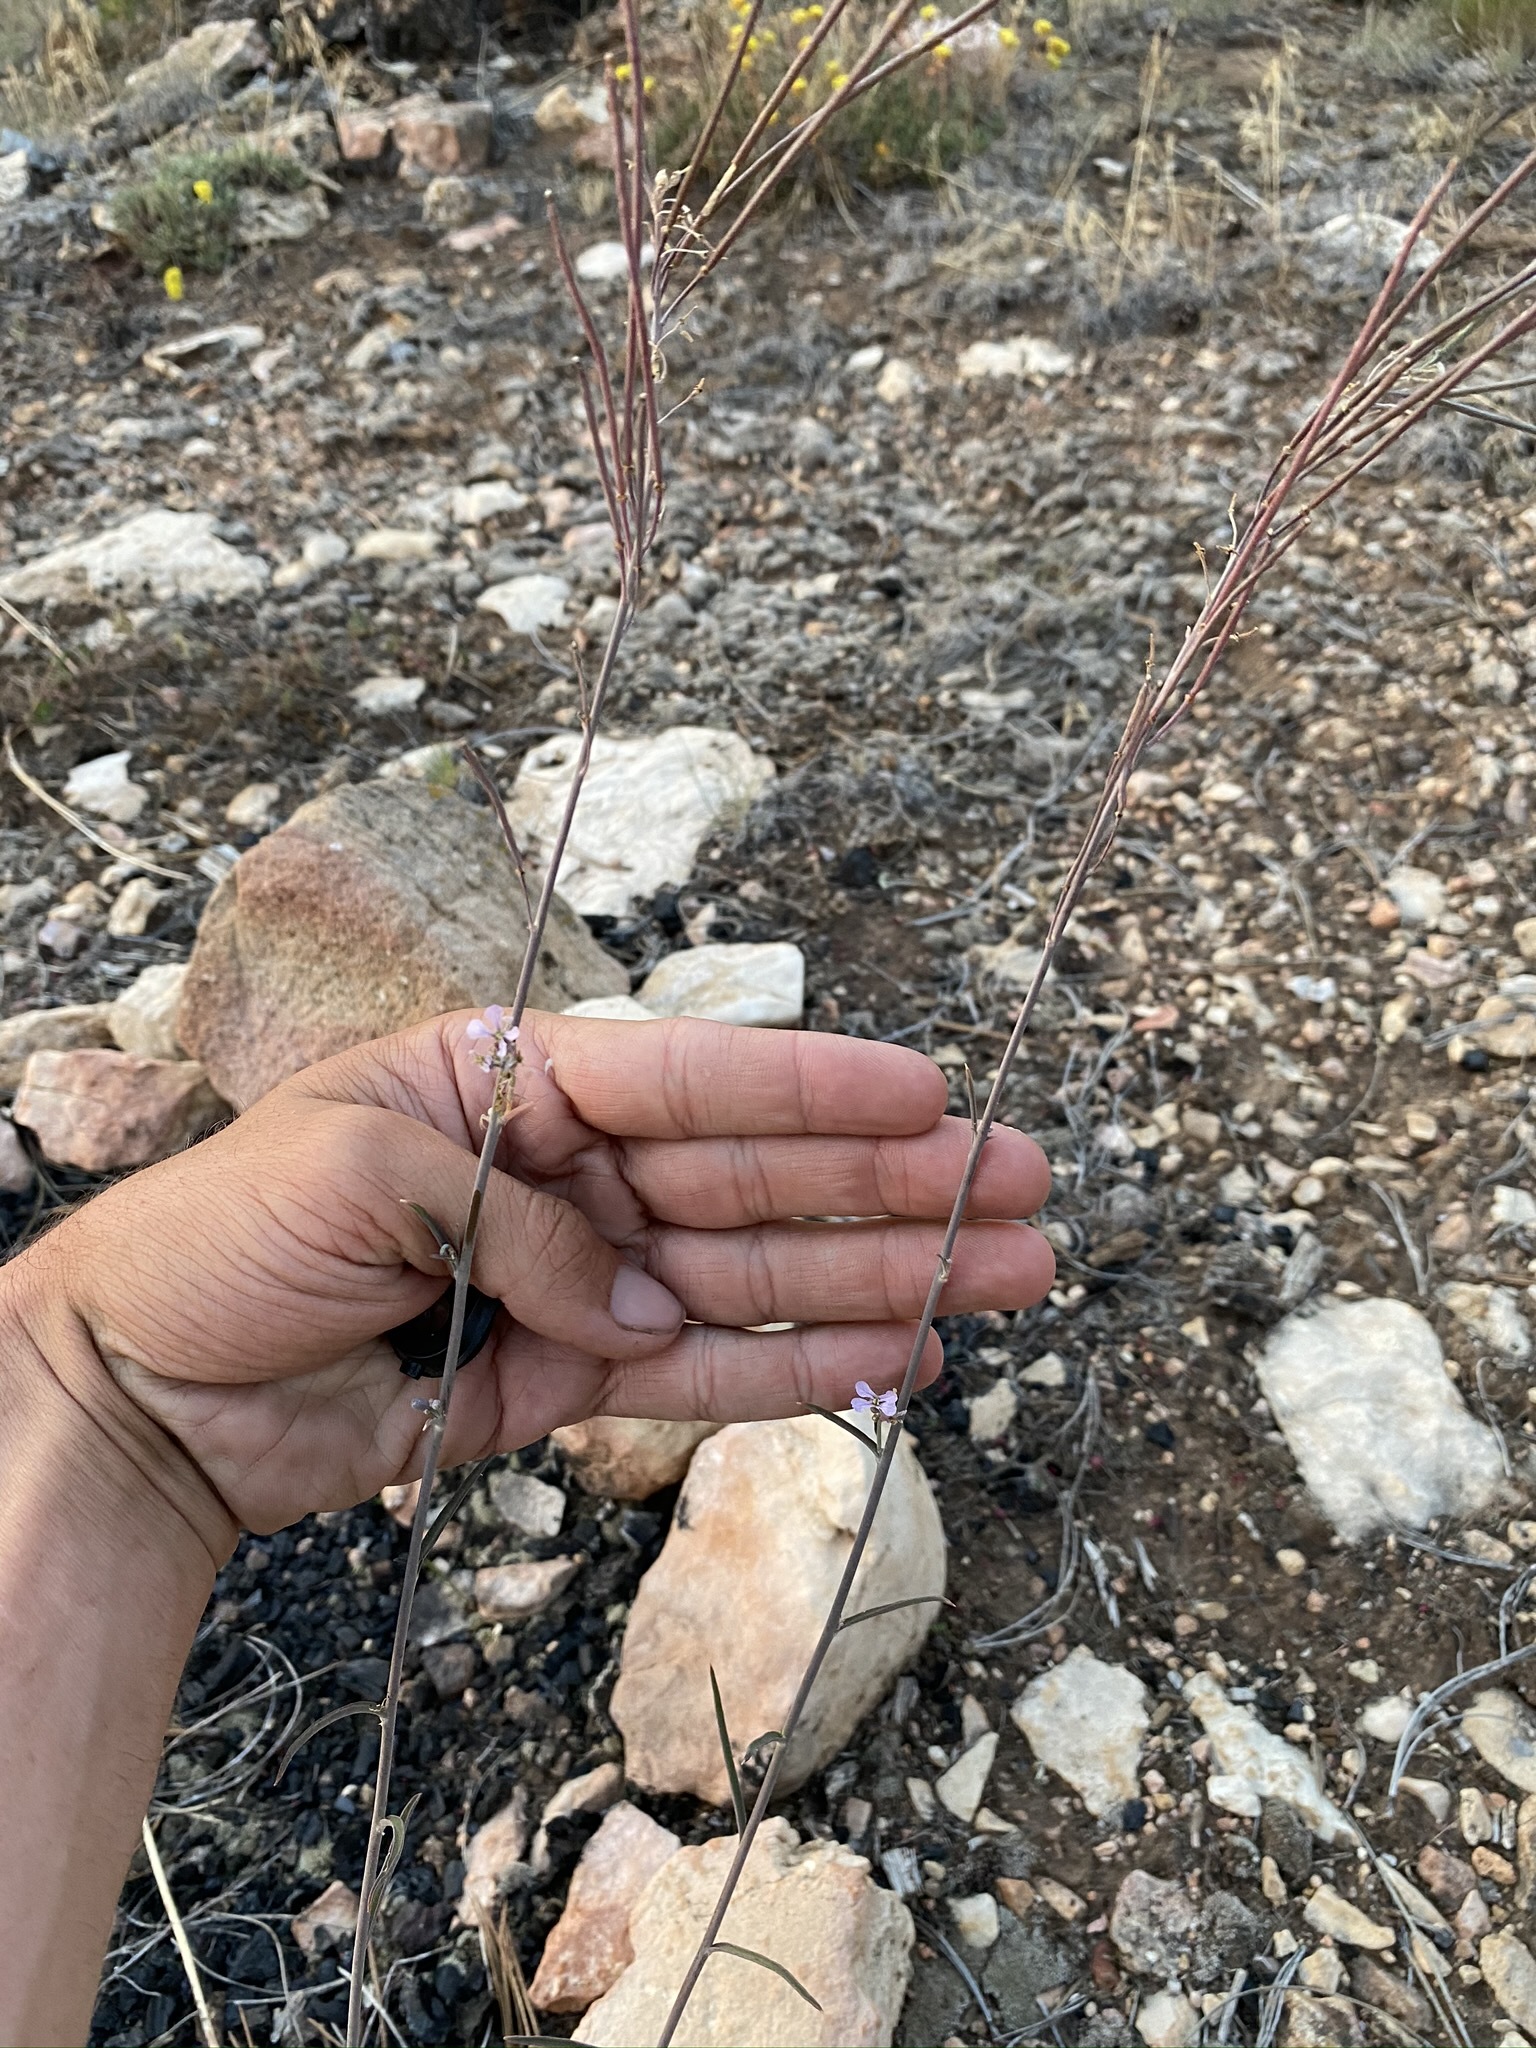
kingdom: Plantae
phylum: Tracheophyta
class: Magnoliopsida
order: Brassicales
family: Brassicaceae
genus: Hesperidanthus
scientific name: Hesperidanthus linearifolius
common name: Slim-leaf plains mustard
